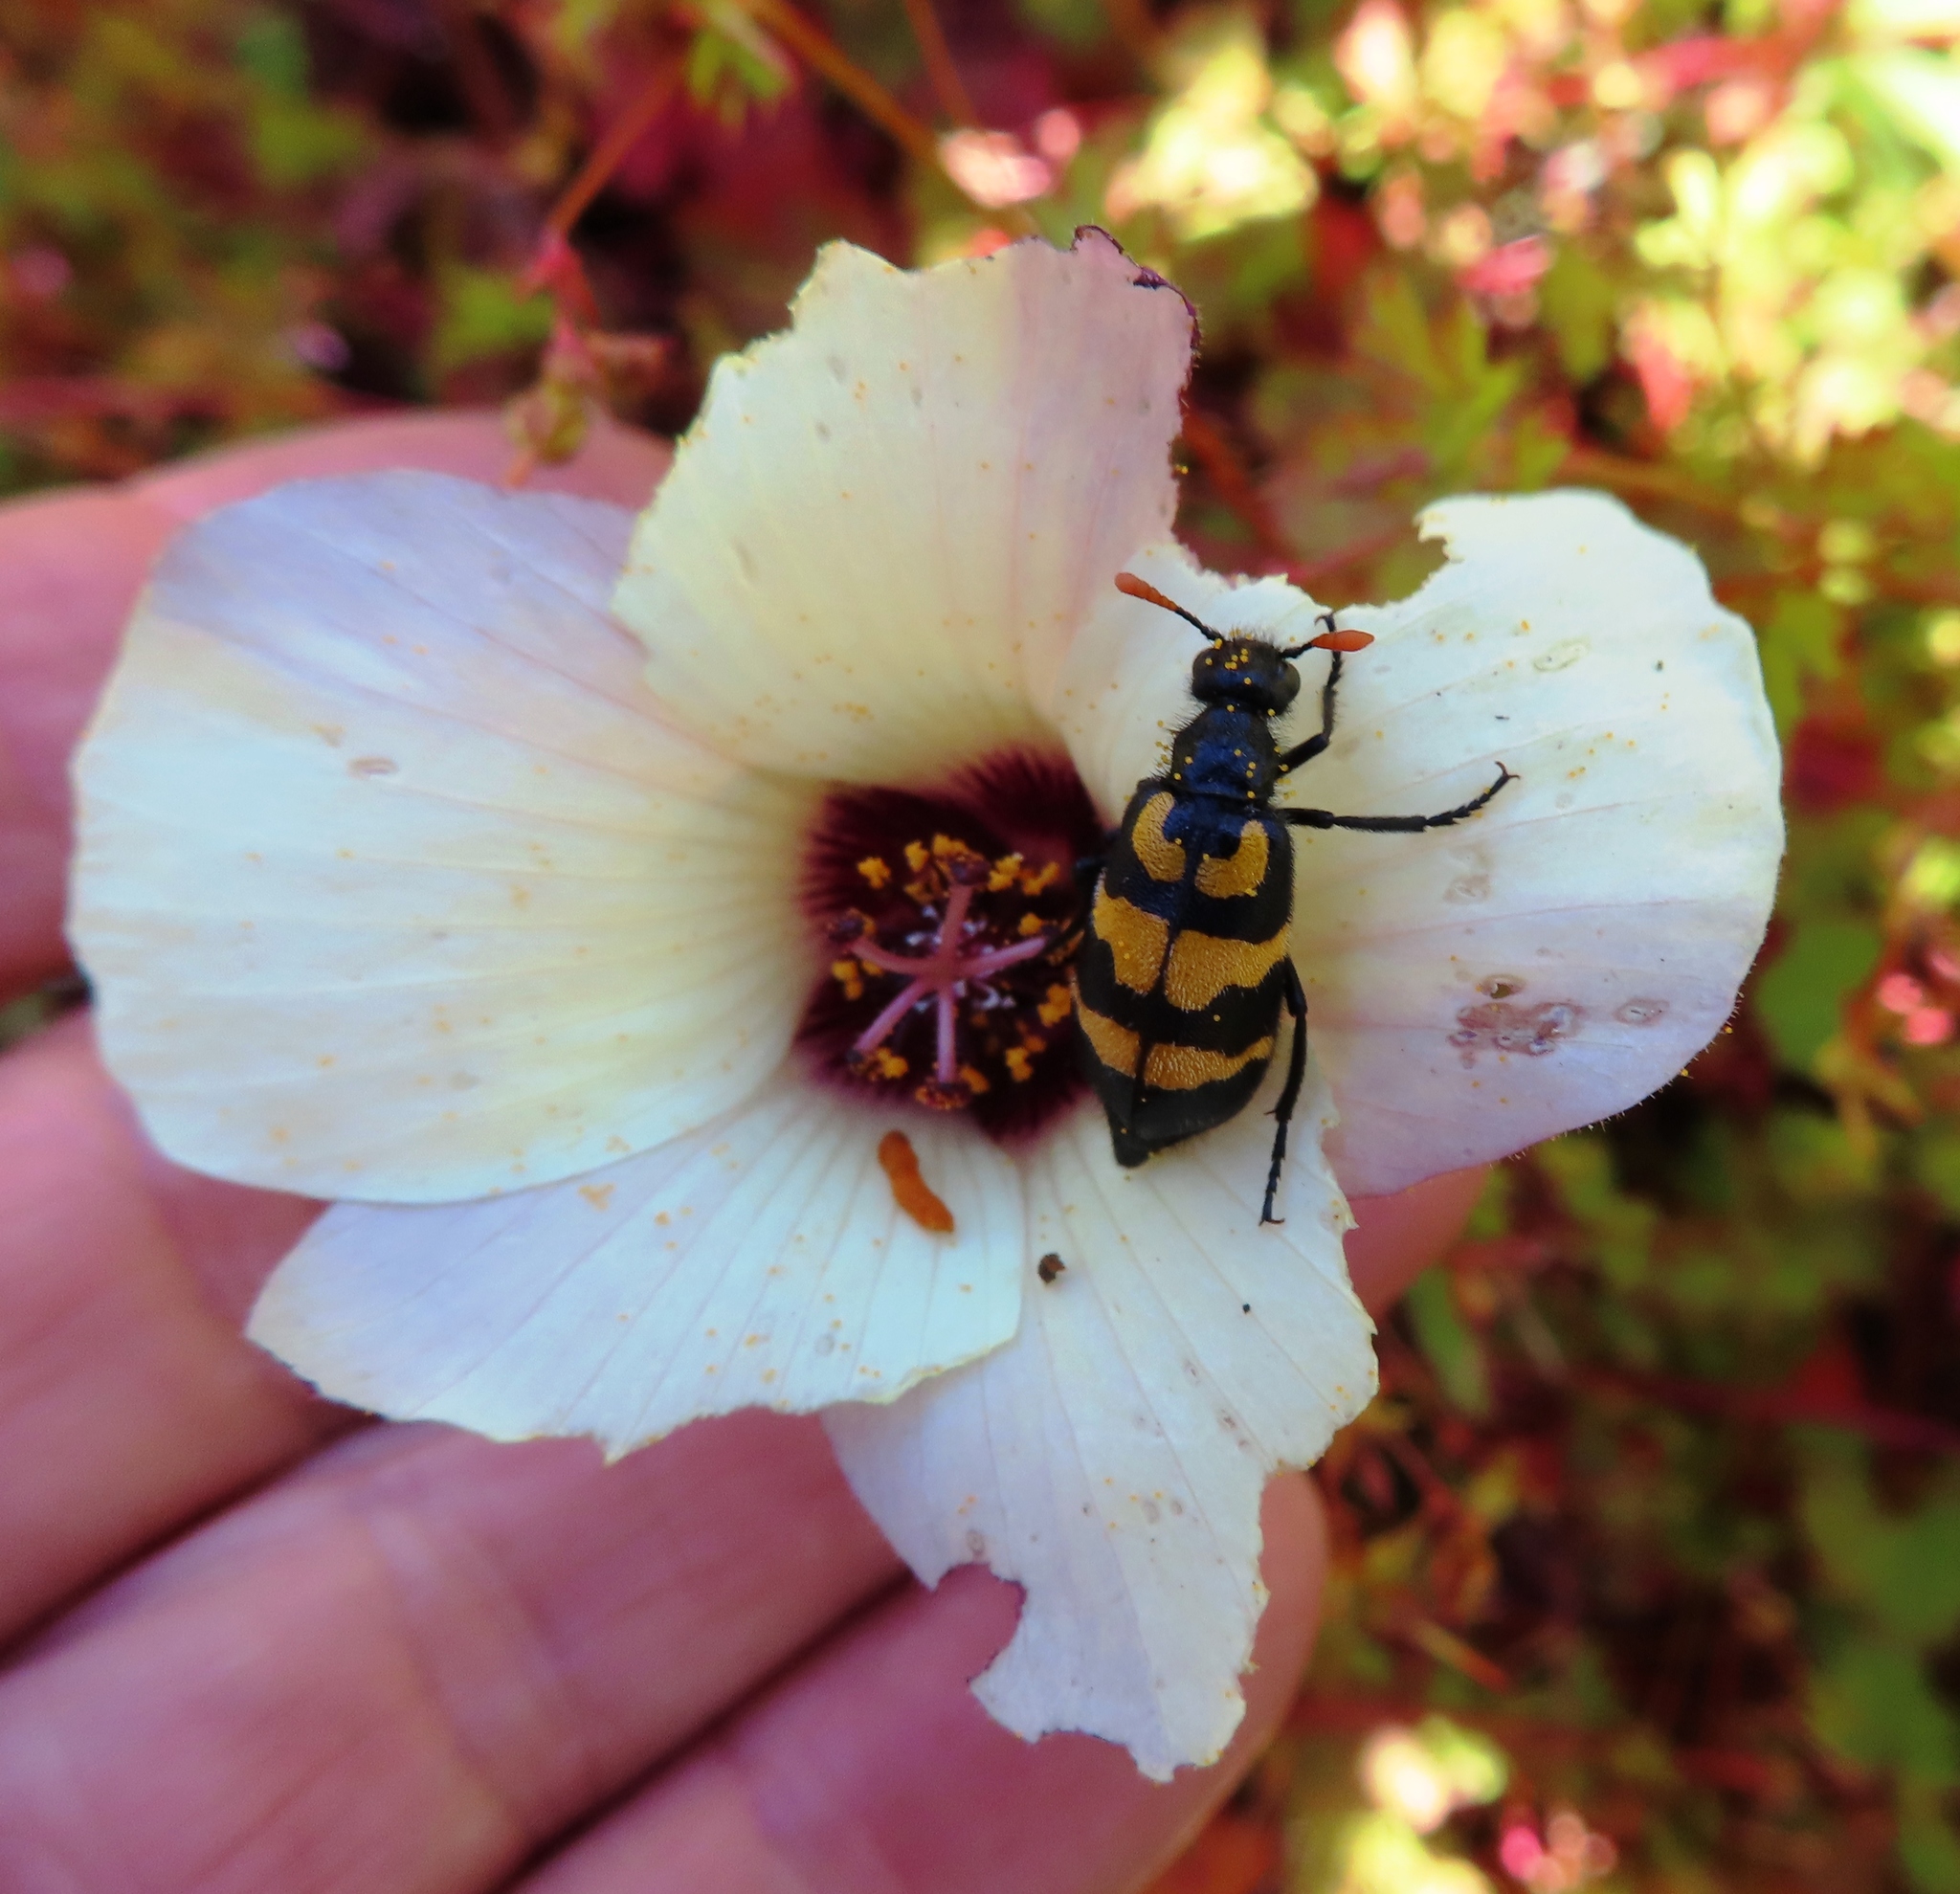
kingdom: Animalia
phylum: Arthropoda
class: Insecta
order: Coleoptera
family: Meloidae
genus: Meloe
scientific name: Meloe lunata
